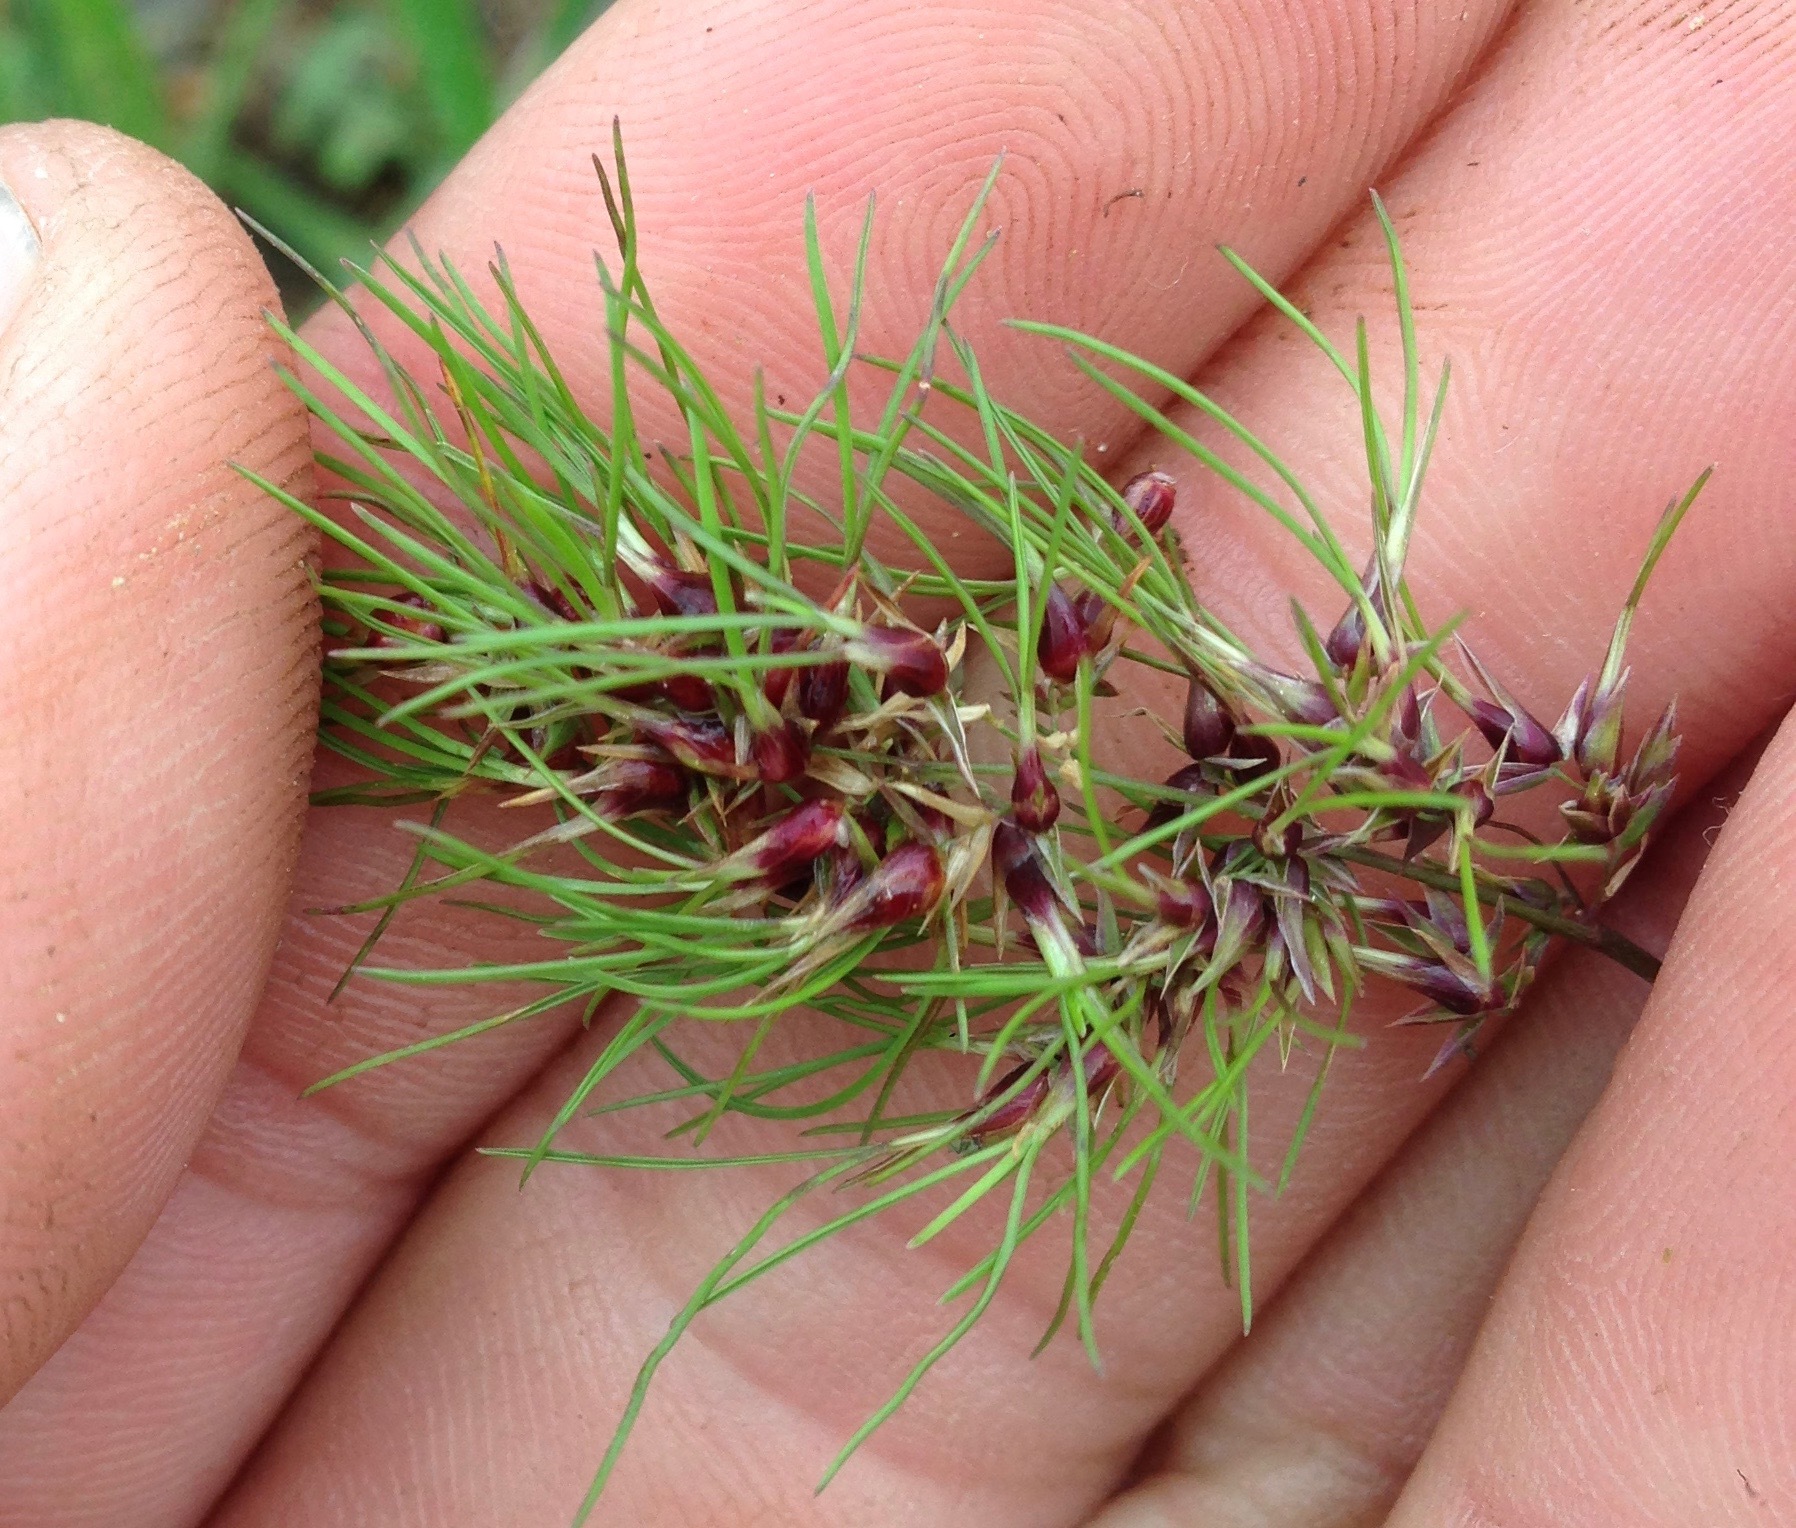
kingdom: Plantae
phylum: Tracheophyta
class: Liliopsida
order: Poales
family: Poaceae
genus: Poa
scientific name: Poa bulbosa
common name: Bulbous bluegrass
